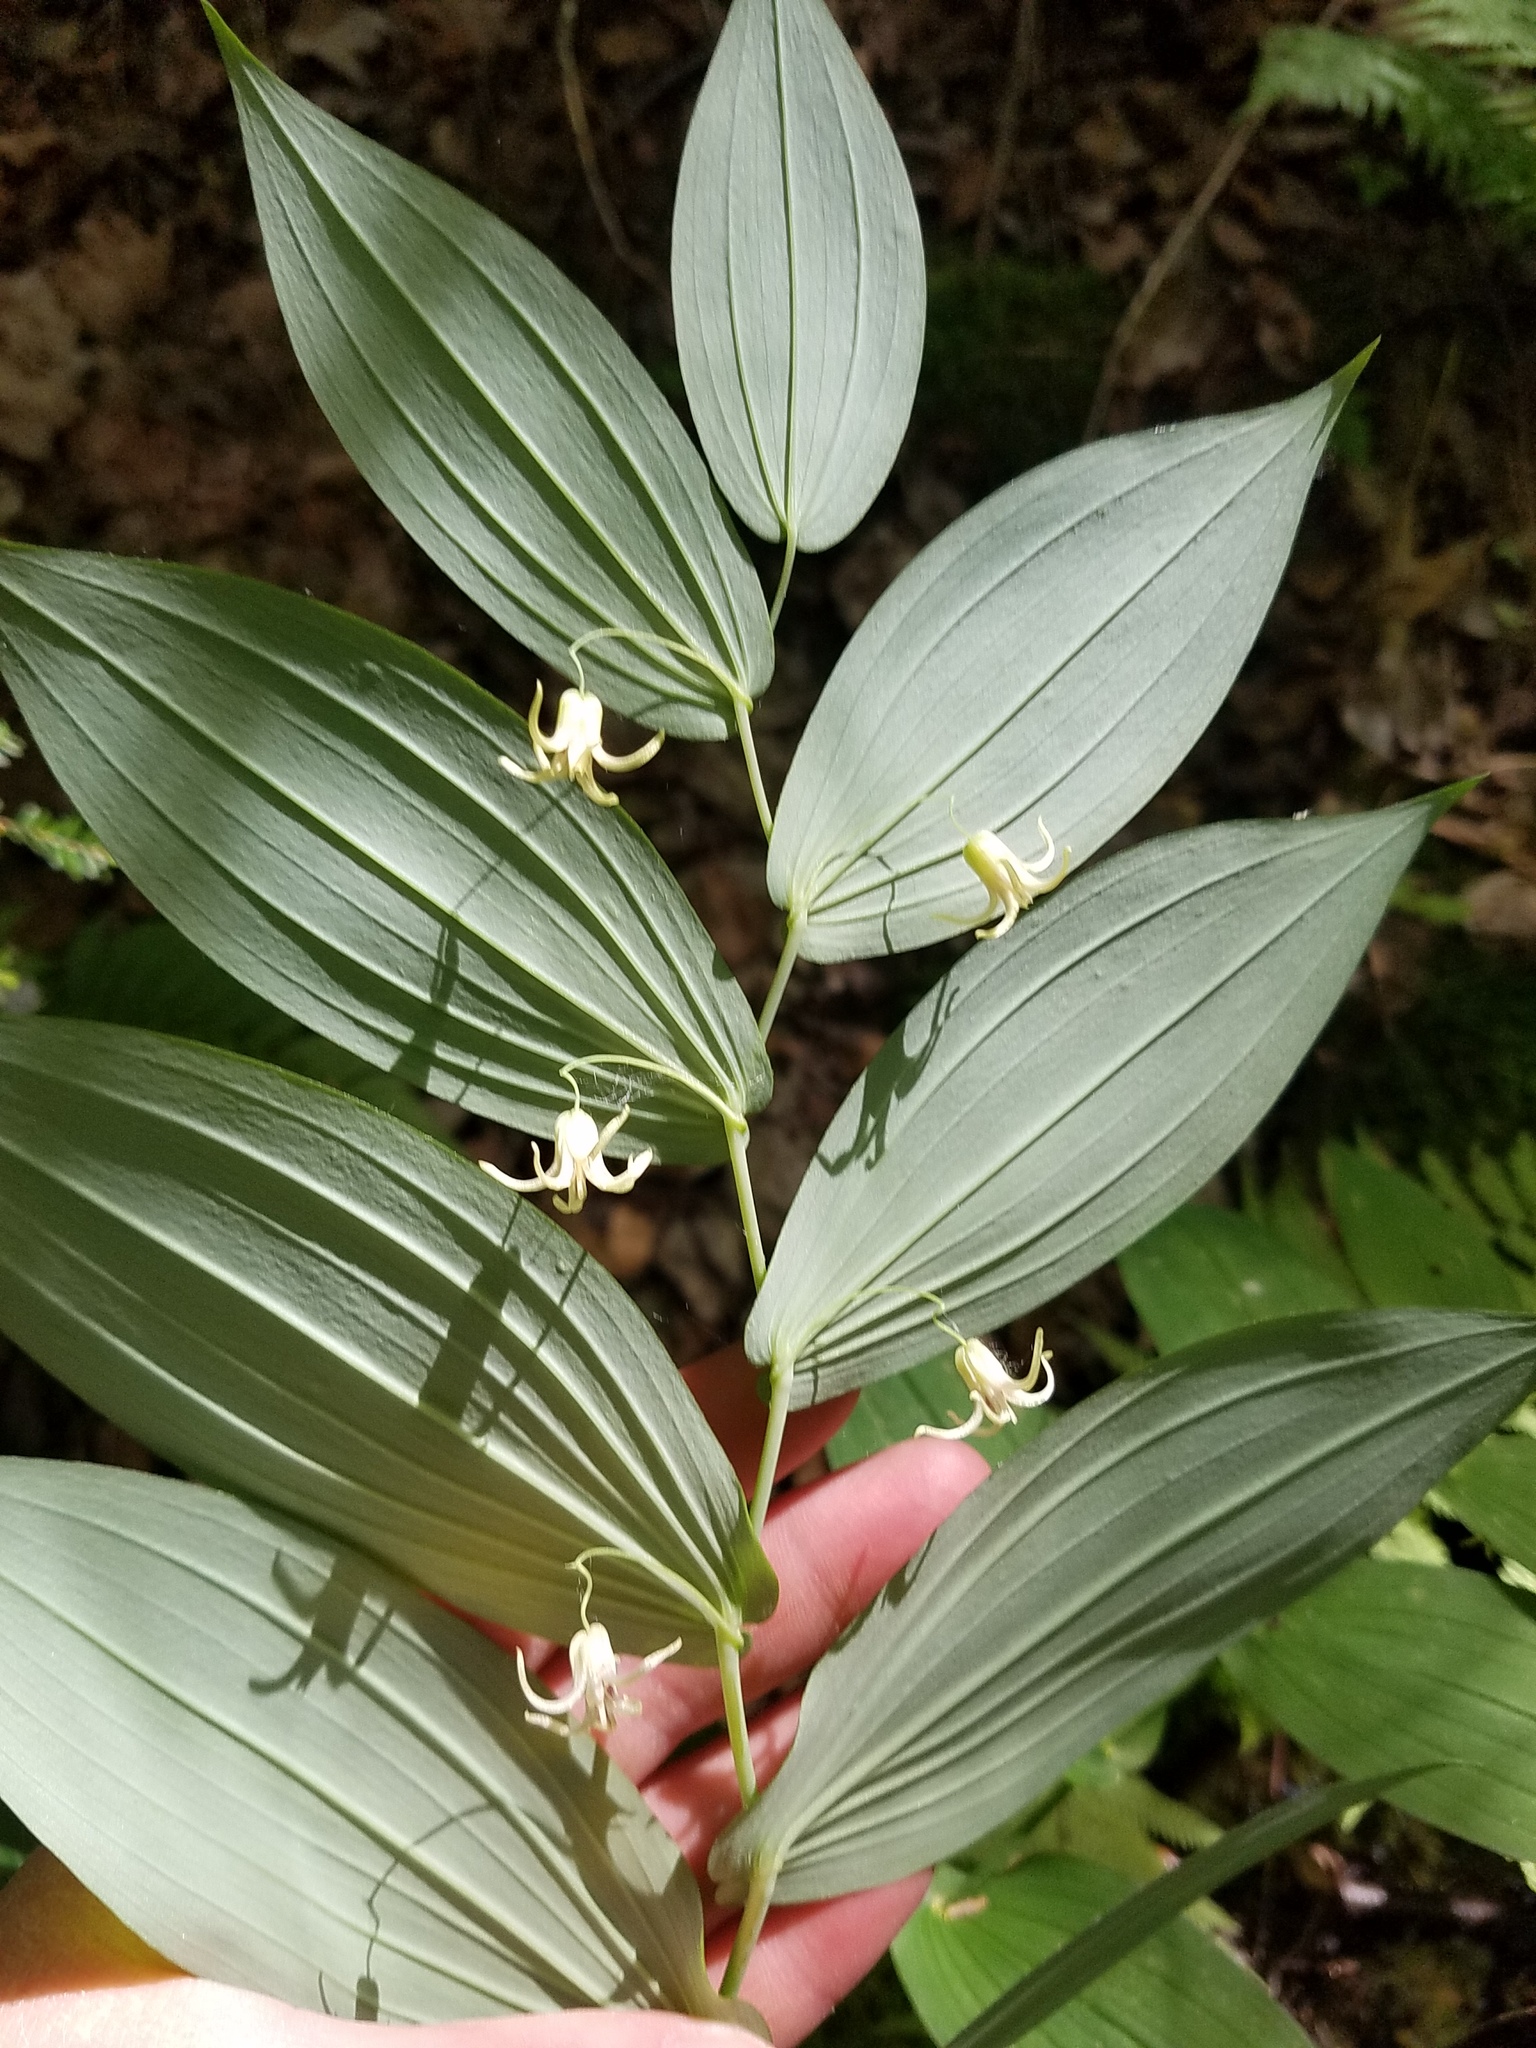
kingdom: Plantae
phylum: Tracheophyta
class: Liliopsida
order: Liliales
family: Liliaceae
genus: Streptopus
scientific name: Streptopus amplexifolius
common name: Clasp twisted stalk
